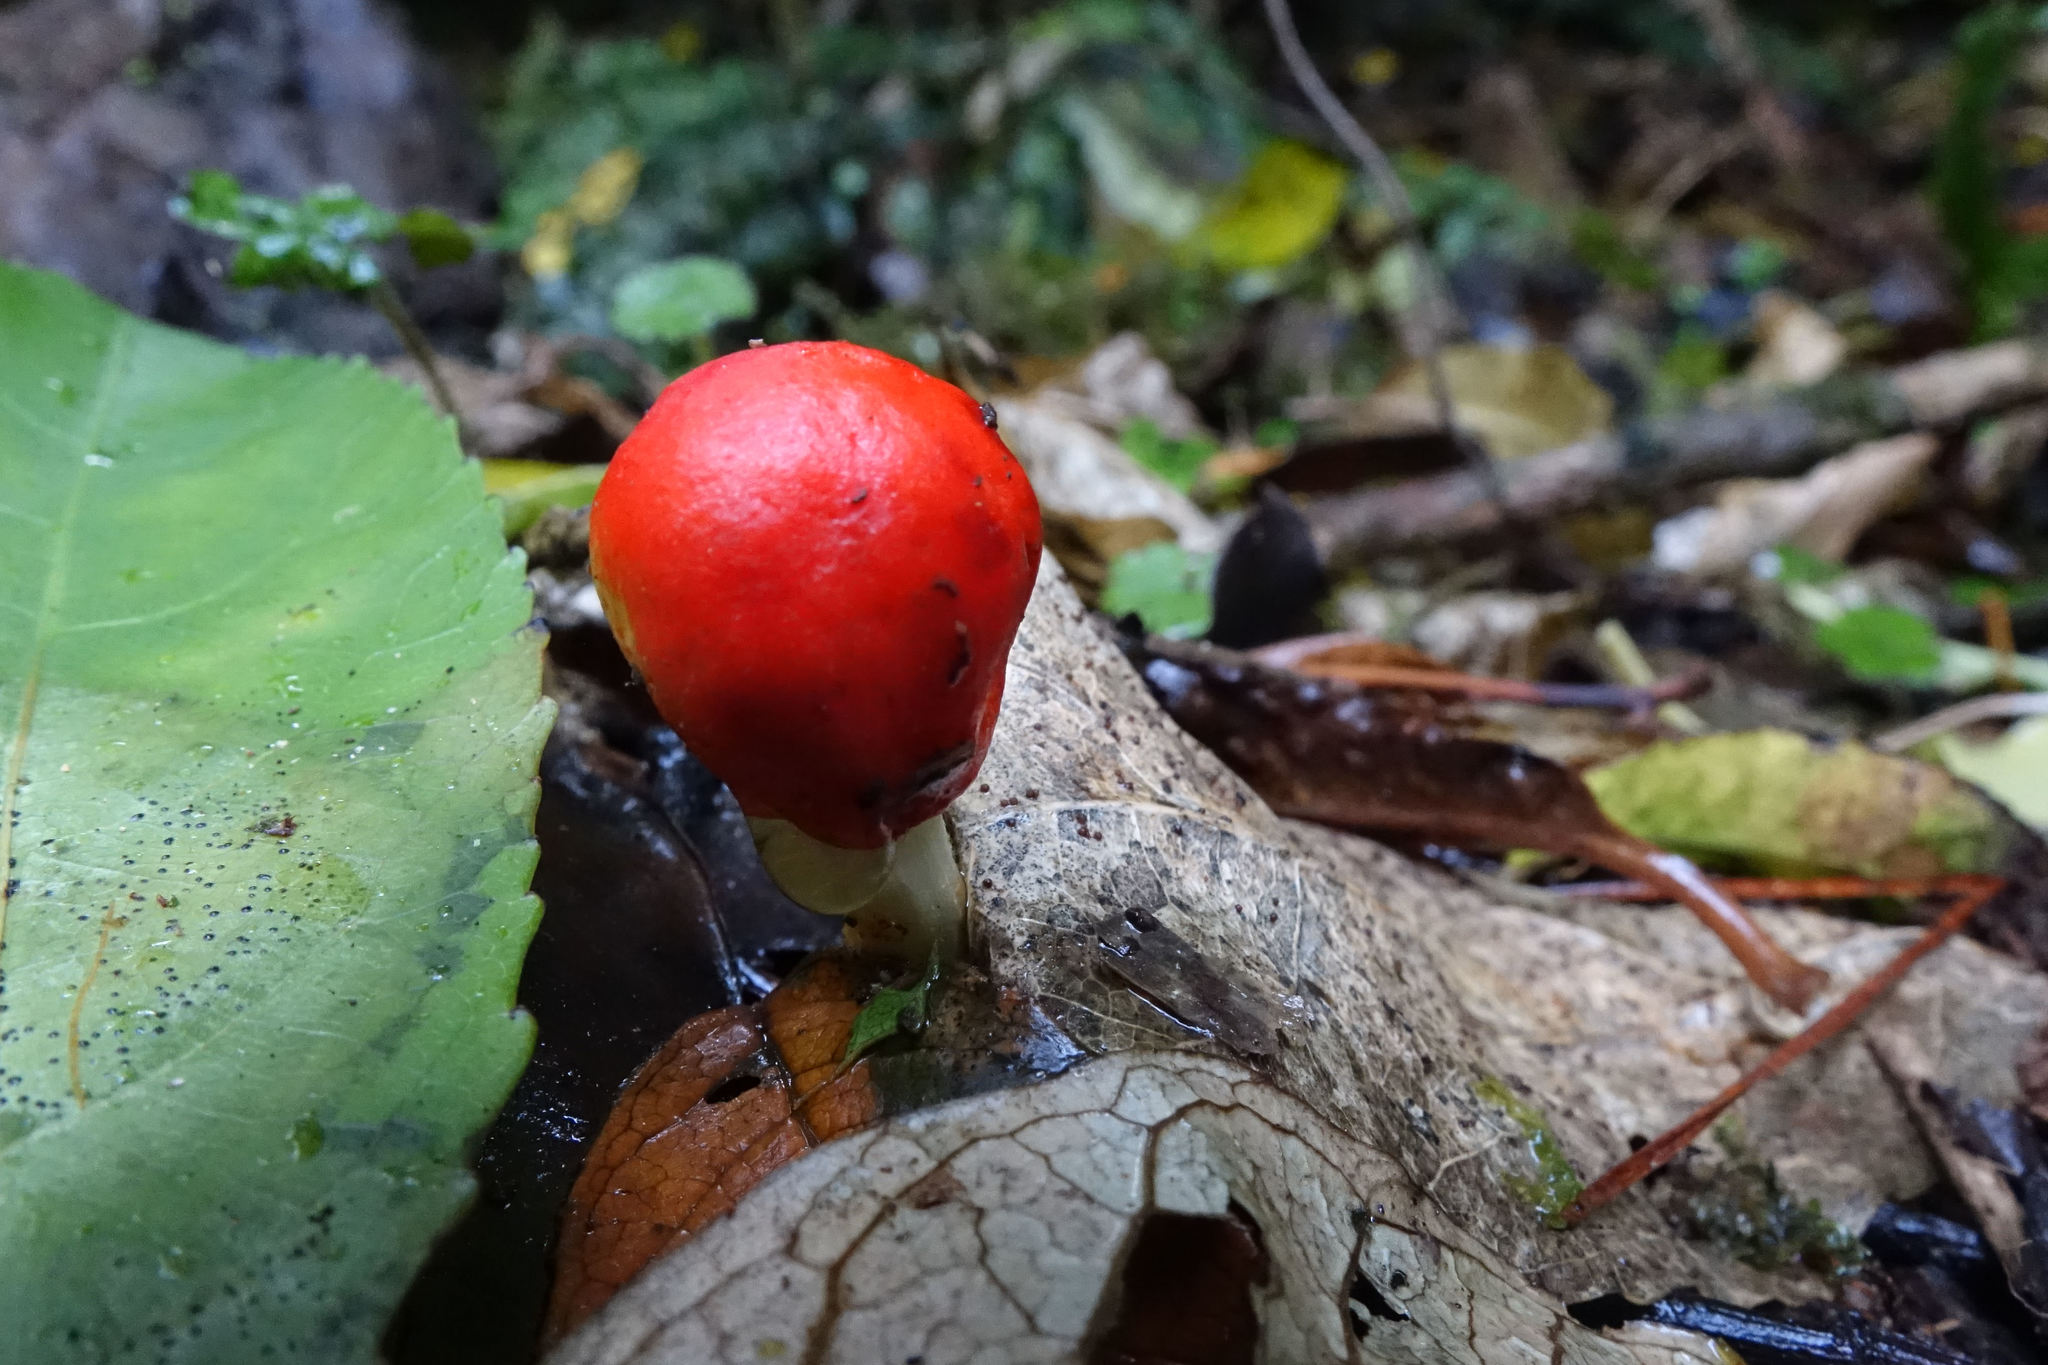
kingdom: Fungi
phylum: Basidiomycota
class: Agaricomycetes
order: Agaricales
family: Strophariaceae
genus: Leratiomyces
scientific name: Leratiomyces erythrocephalus
